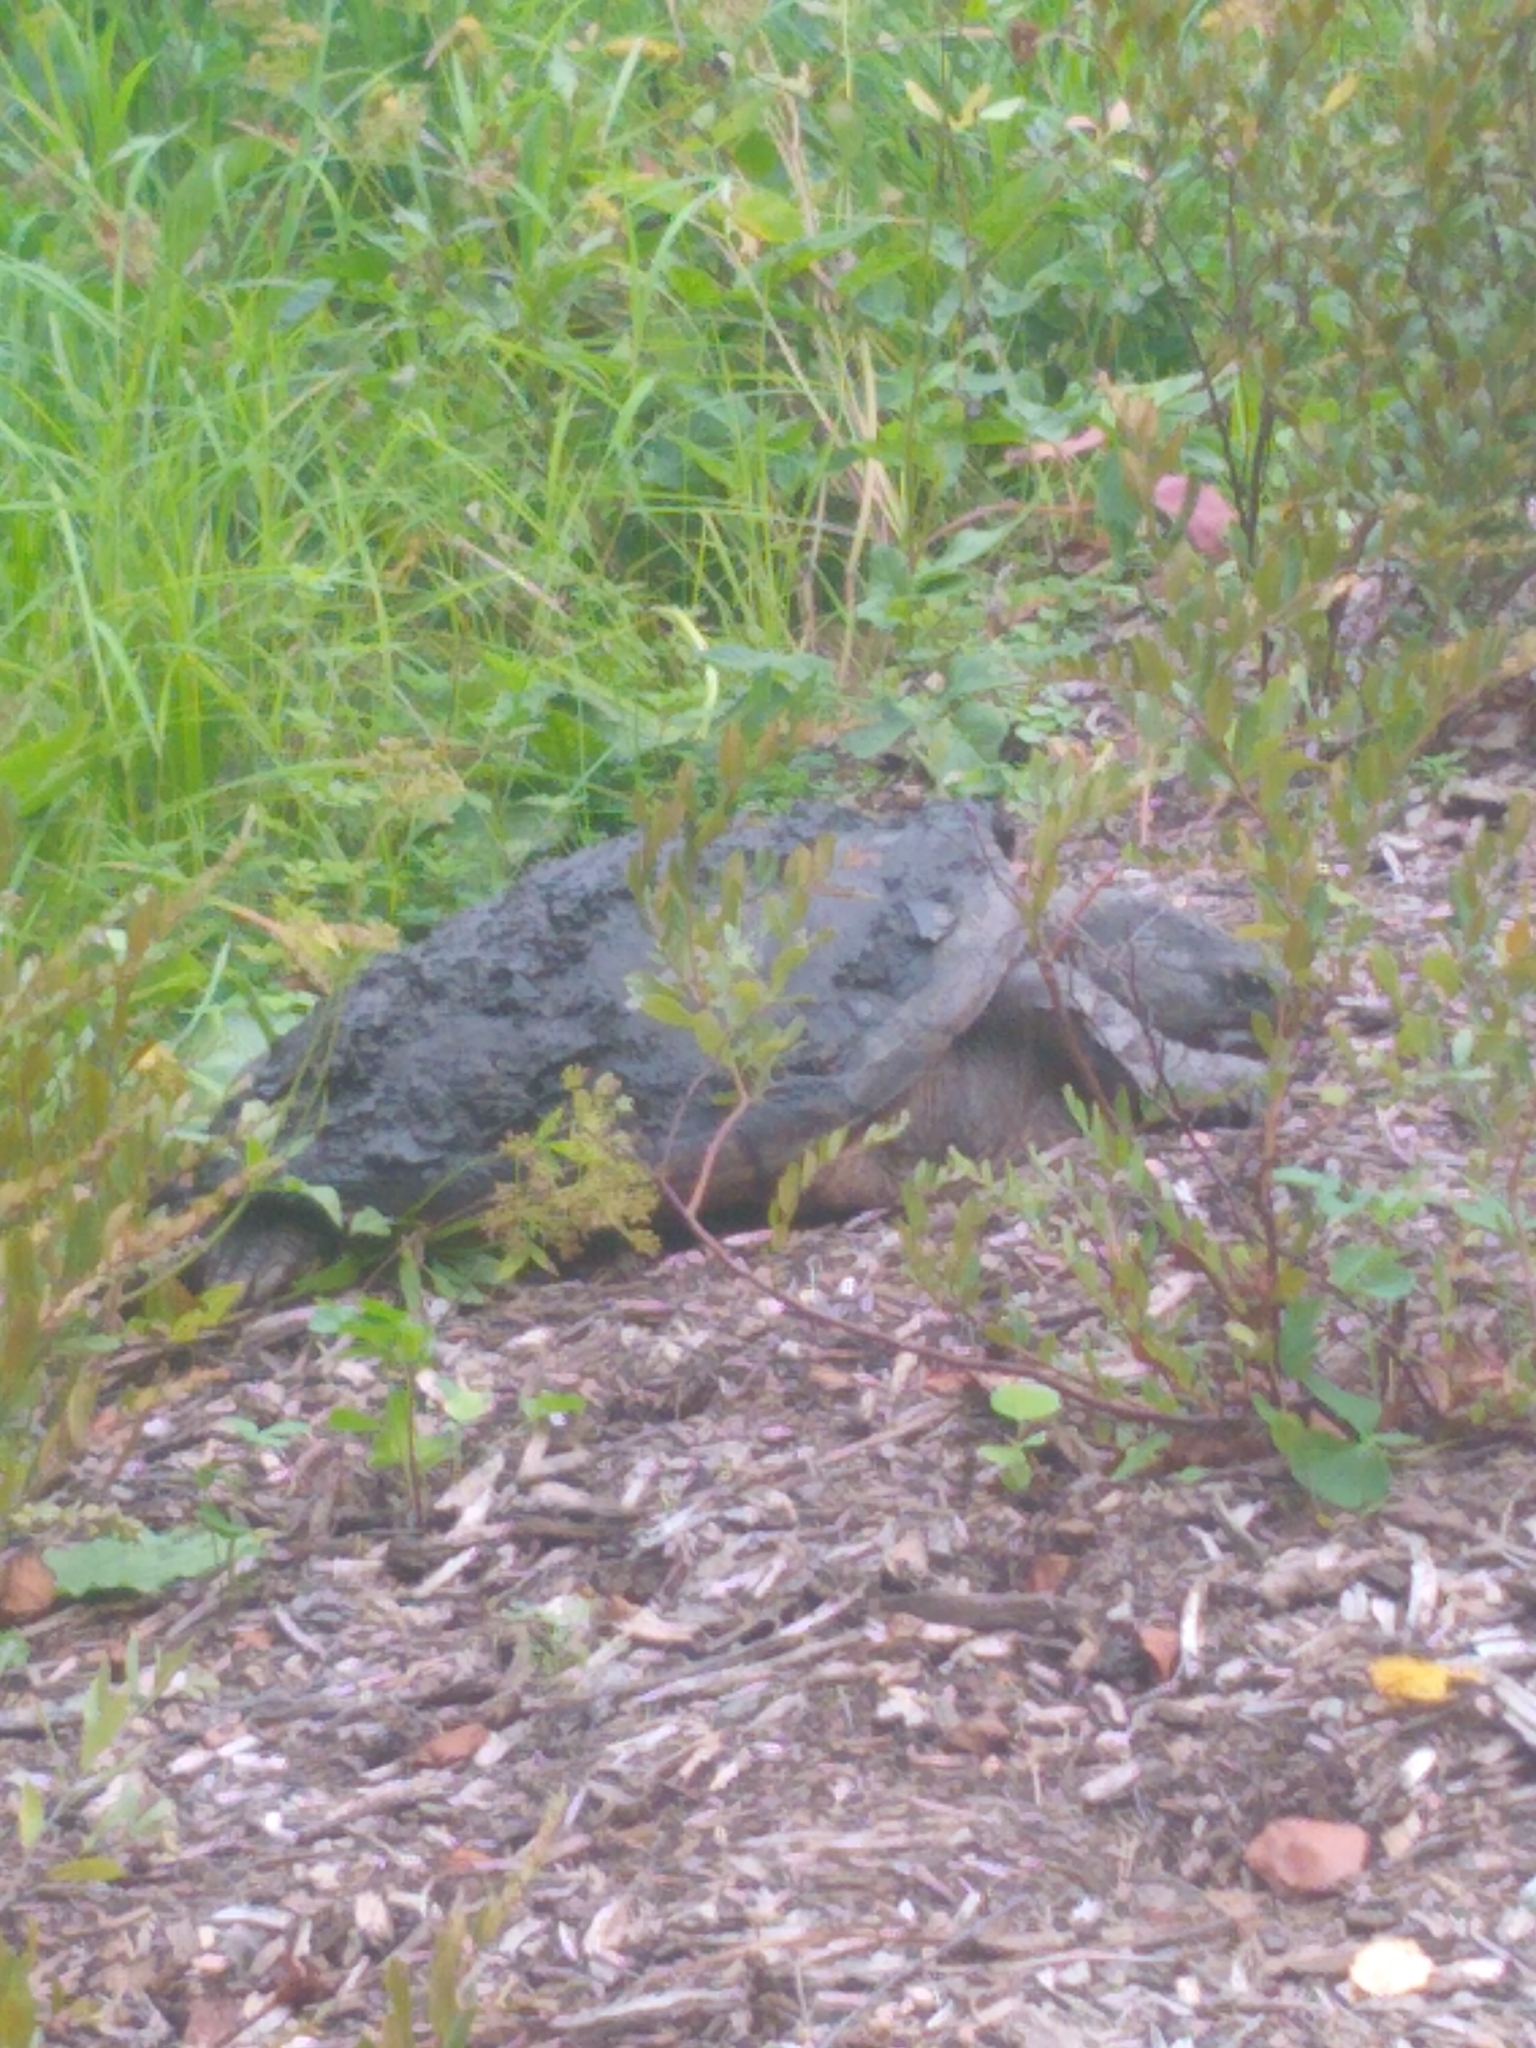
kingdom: Animalia
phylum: Chordata
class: Testudines
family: Chelydridae
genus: Chelydra
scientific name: Chelydra serpentina
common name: Common snapping turtle
